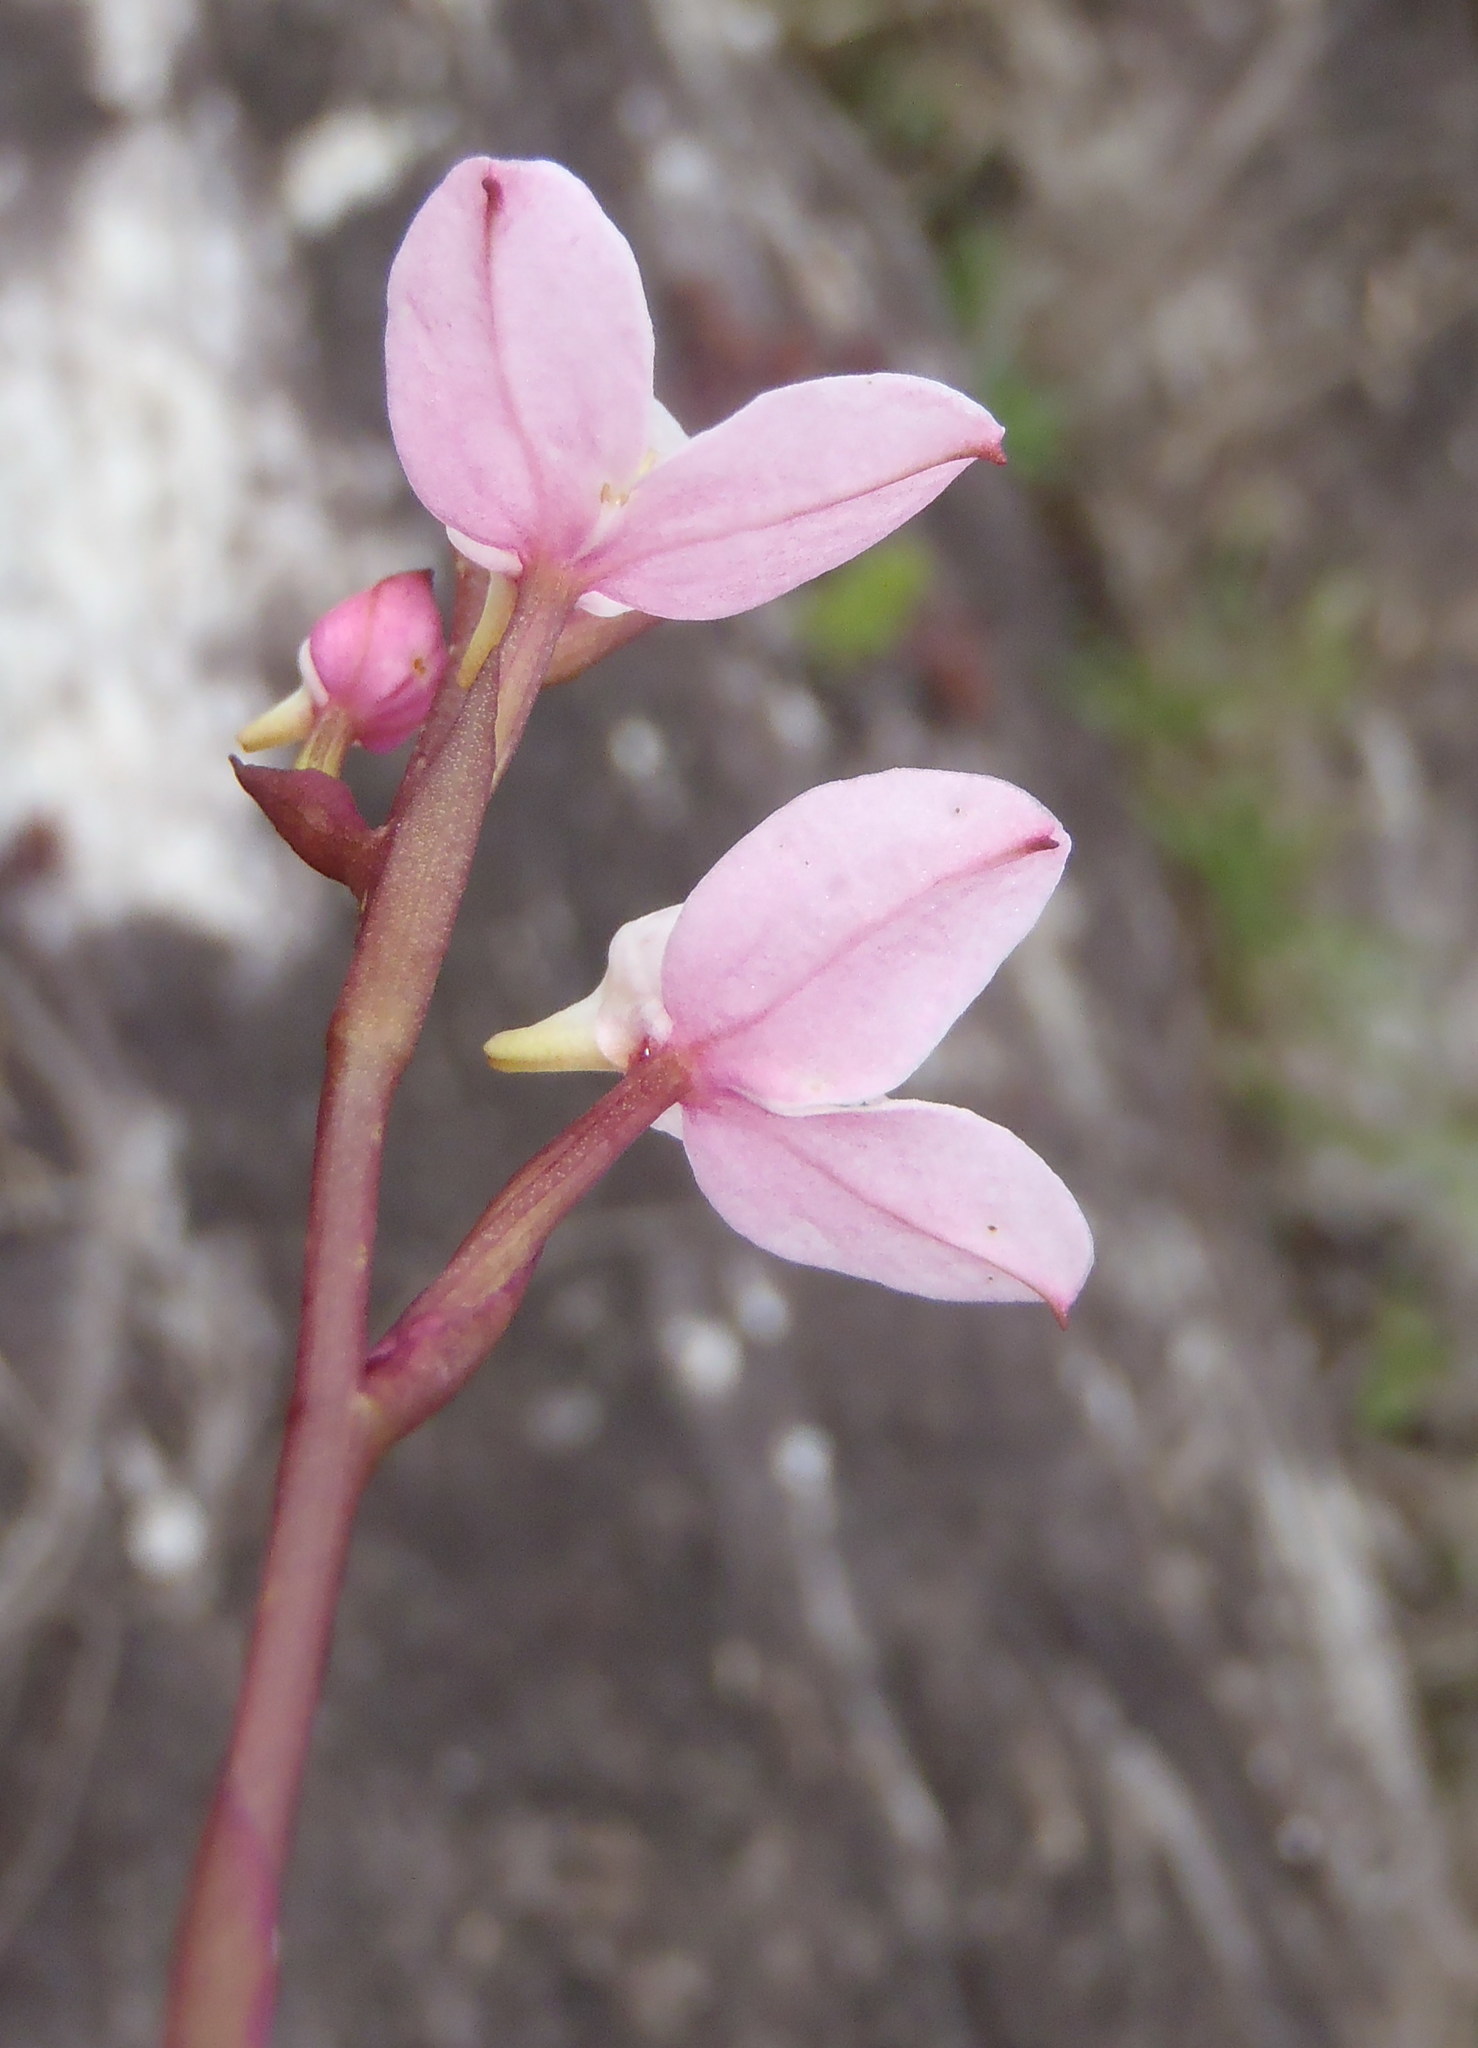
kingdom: Plantae
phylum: Tracheophyta
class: Liliopsida
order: Asparagales
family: Orchidaceae
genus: Disa
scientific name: Disa tripetaloides
